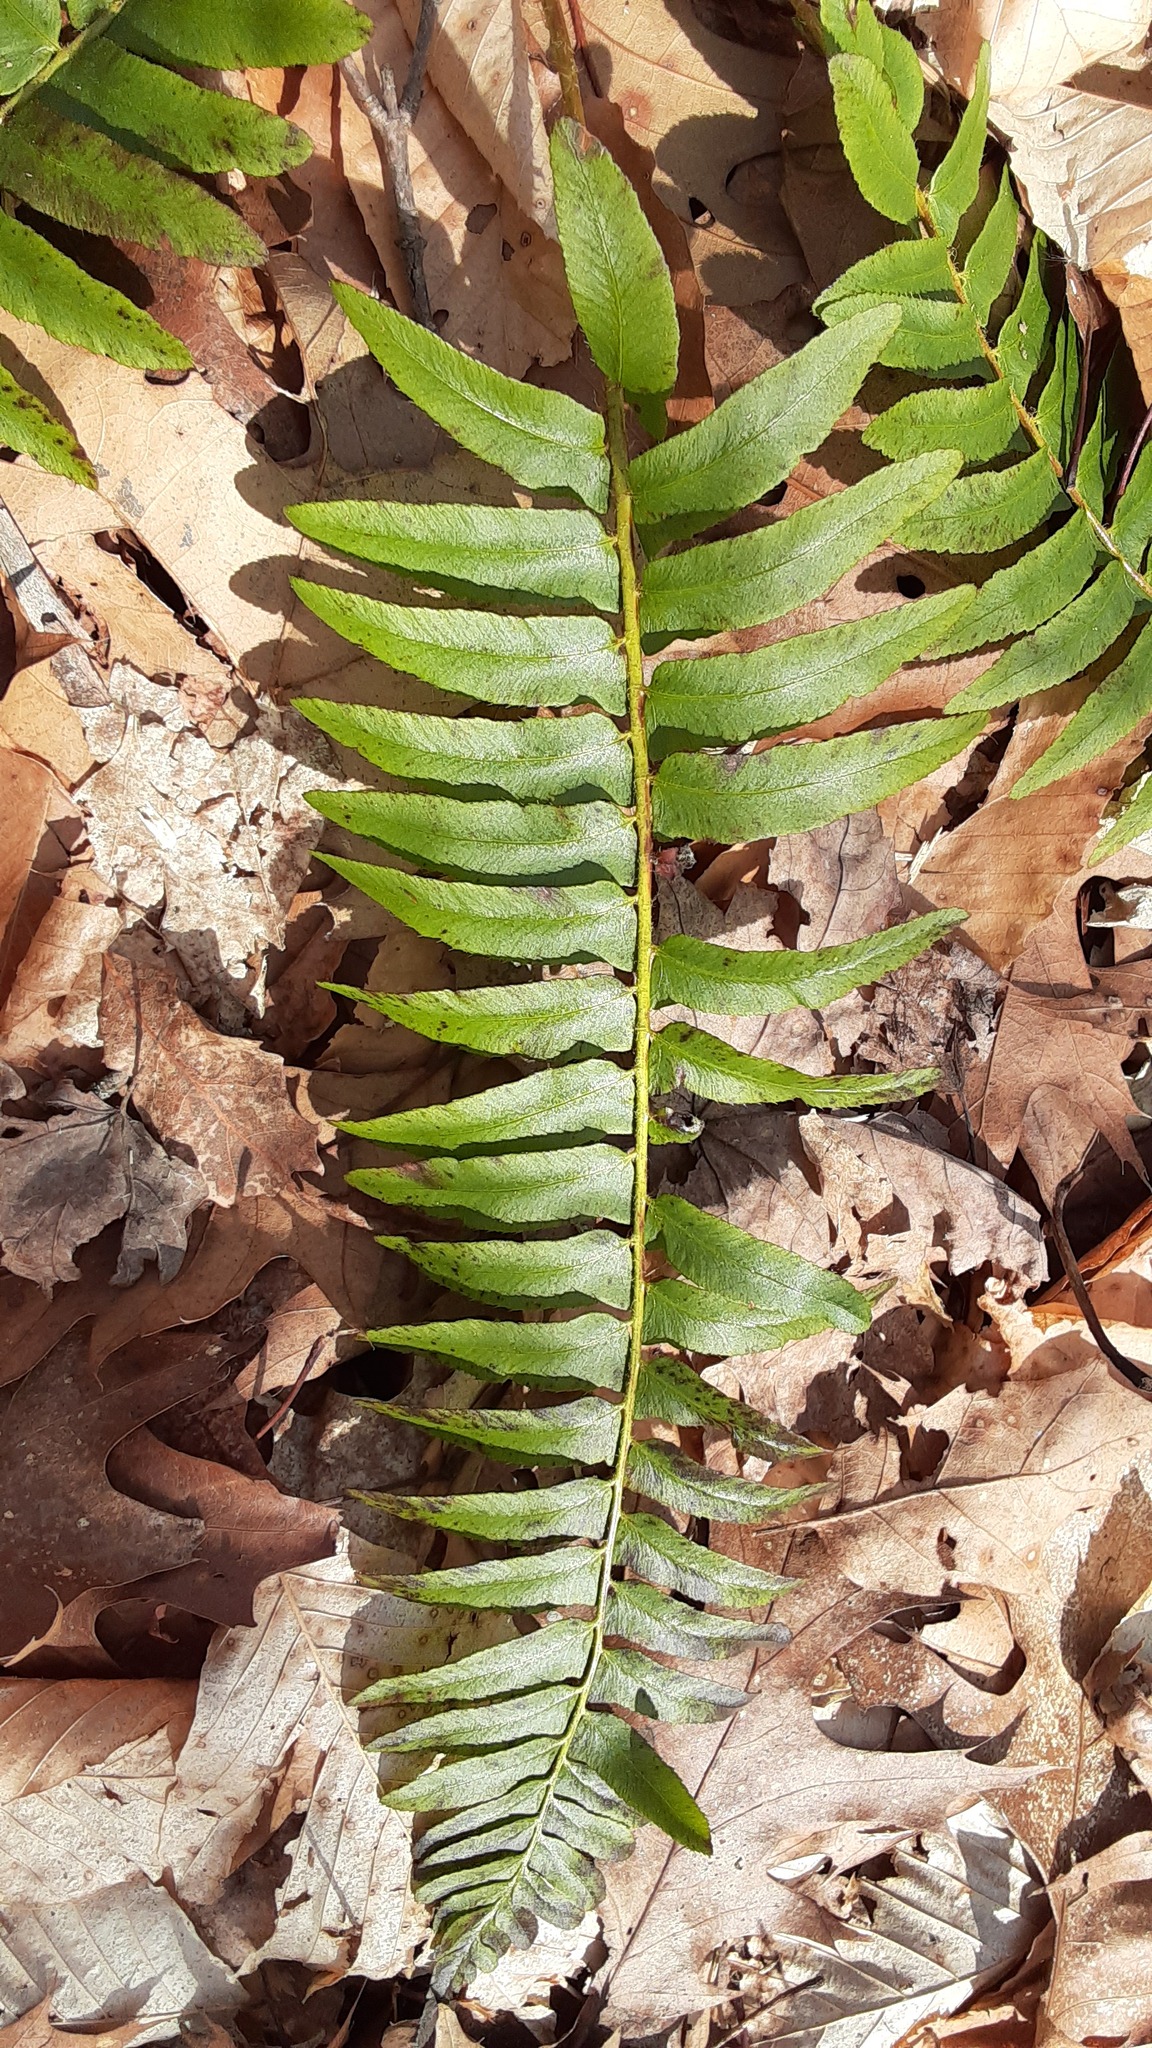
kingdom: Plantae
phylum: Tracheophyta
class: Polypodiopsida
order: Polypodiales
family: Dryopteridaceae
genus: Polystichum
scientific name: Polystichum acrostichoides
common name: Christmas fern
